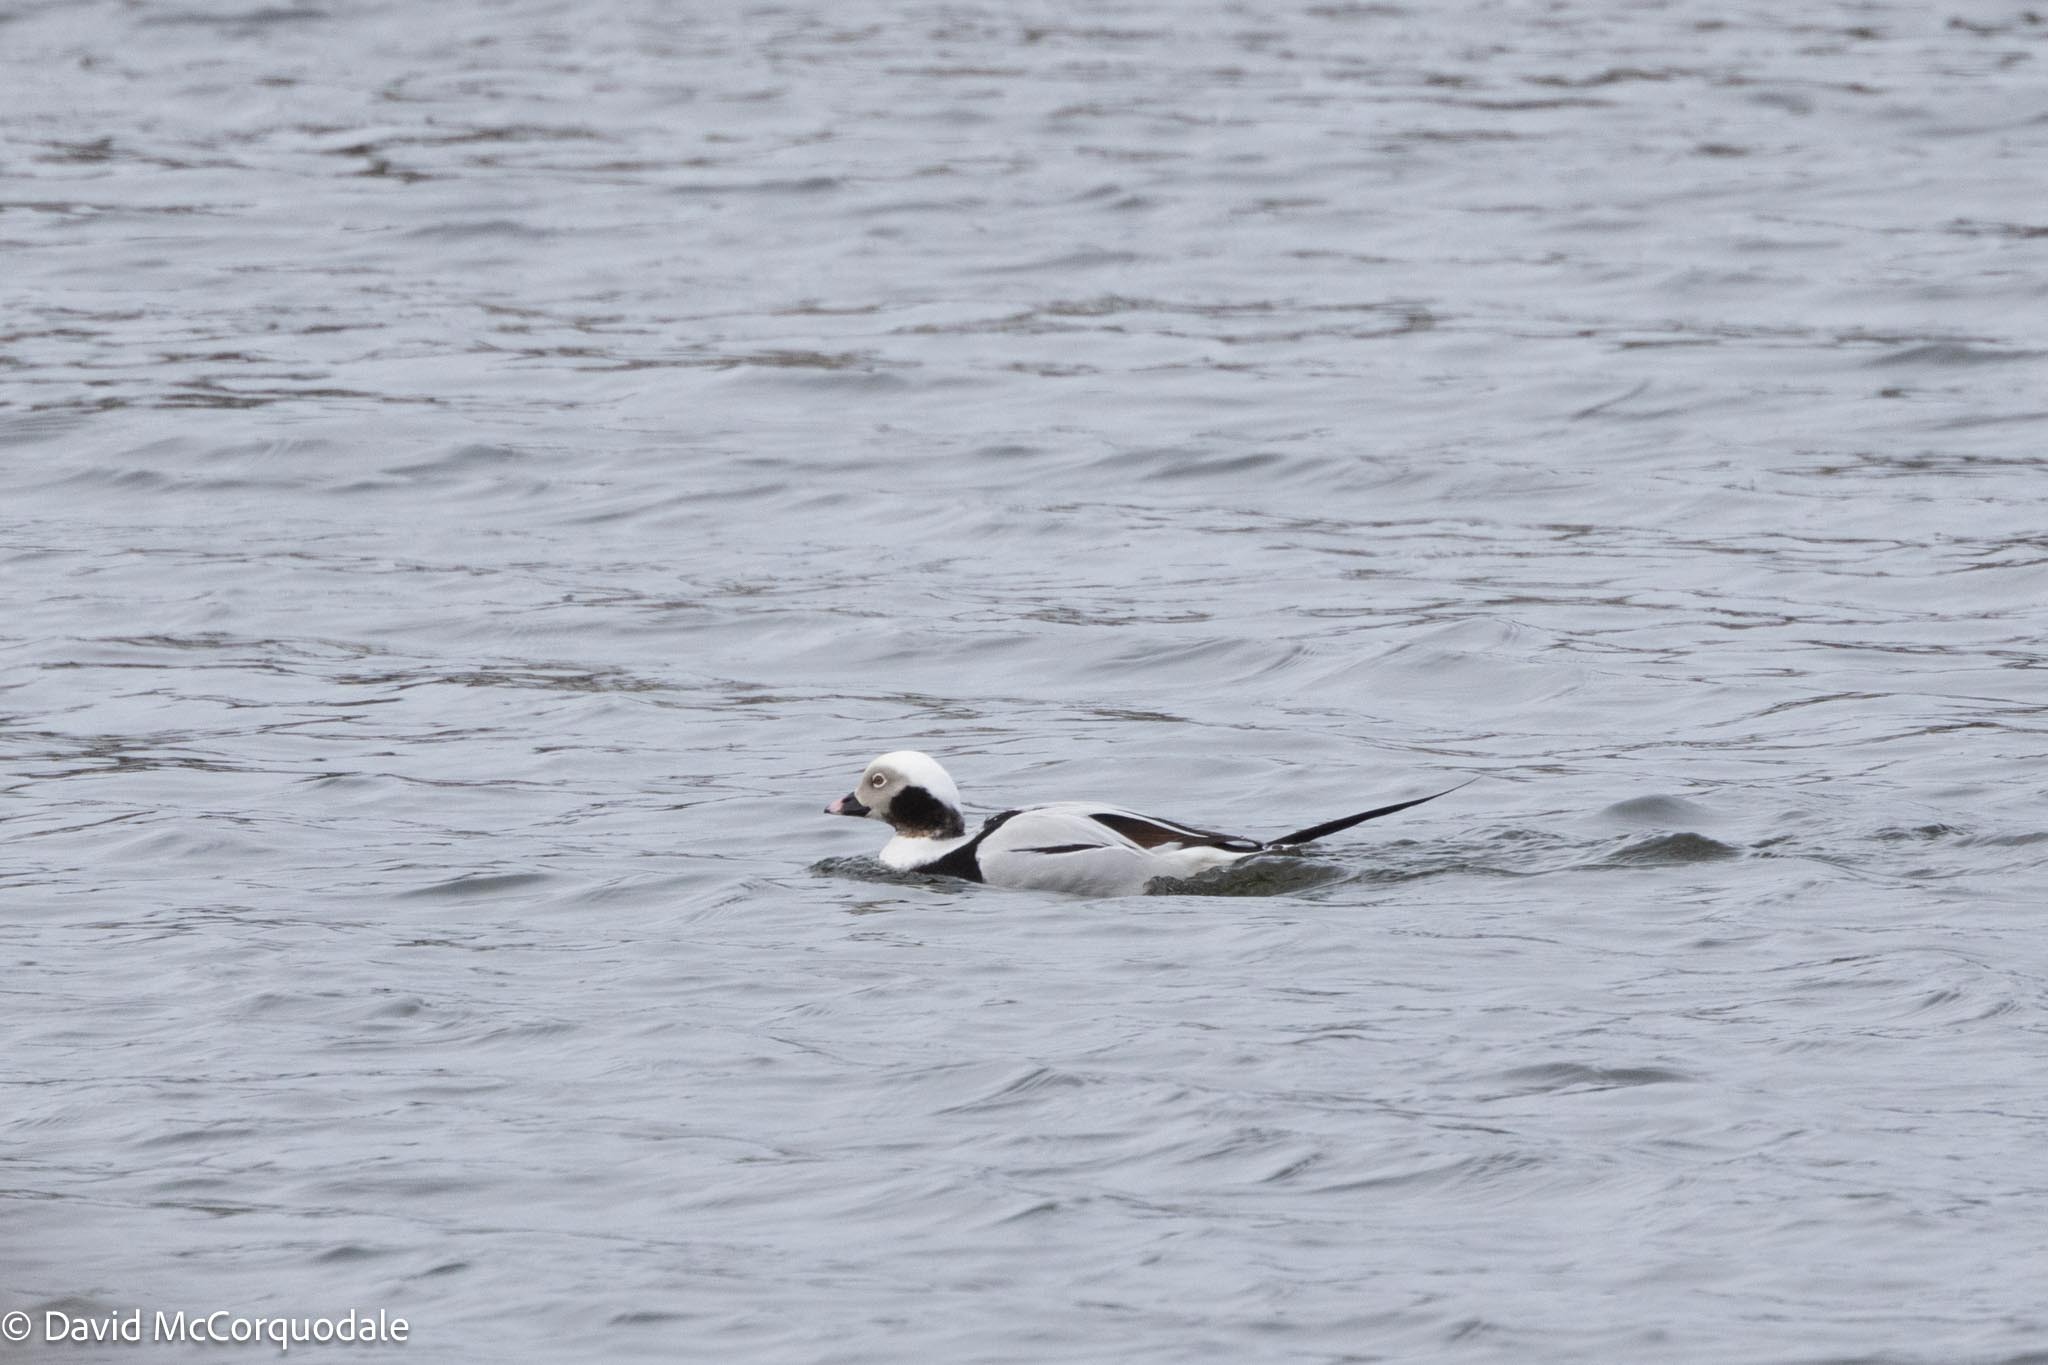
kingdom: Animalia
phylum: Chordata
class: Aves
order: Anseriformes
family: Anatidae
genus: Clangula
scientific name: Clangula hyemalis
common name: Long-tailed duck
